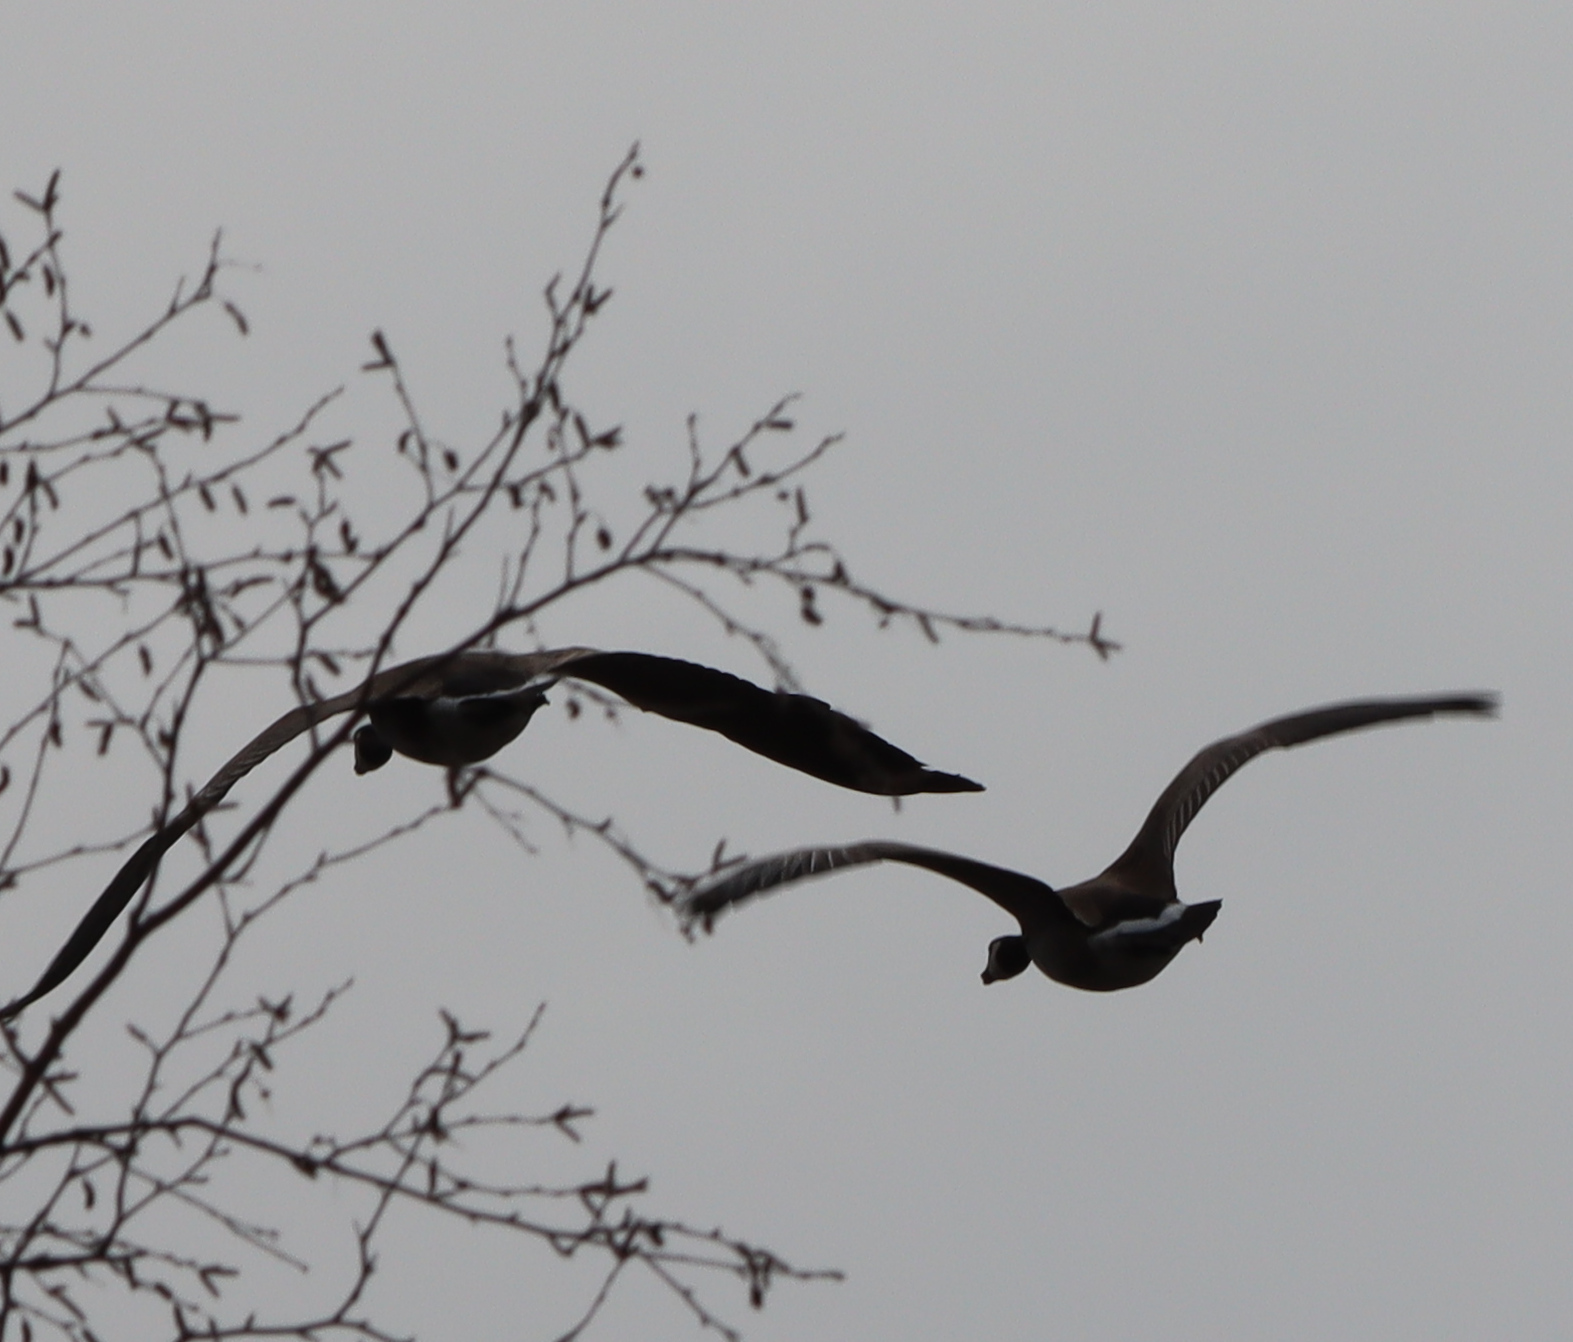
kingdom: Animalia
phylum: Chordata
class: Aves
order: Anseriformes
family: Anatidae
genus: Branta
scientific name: Branta canadensis
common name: Canada goose
